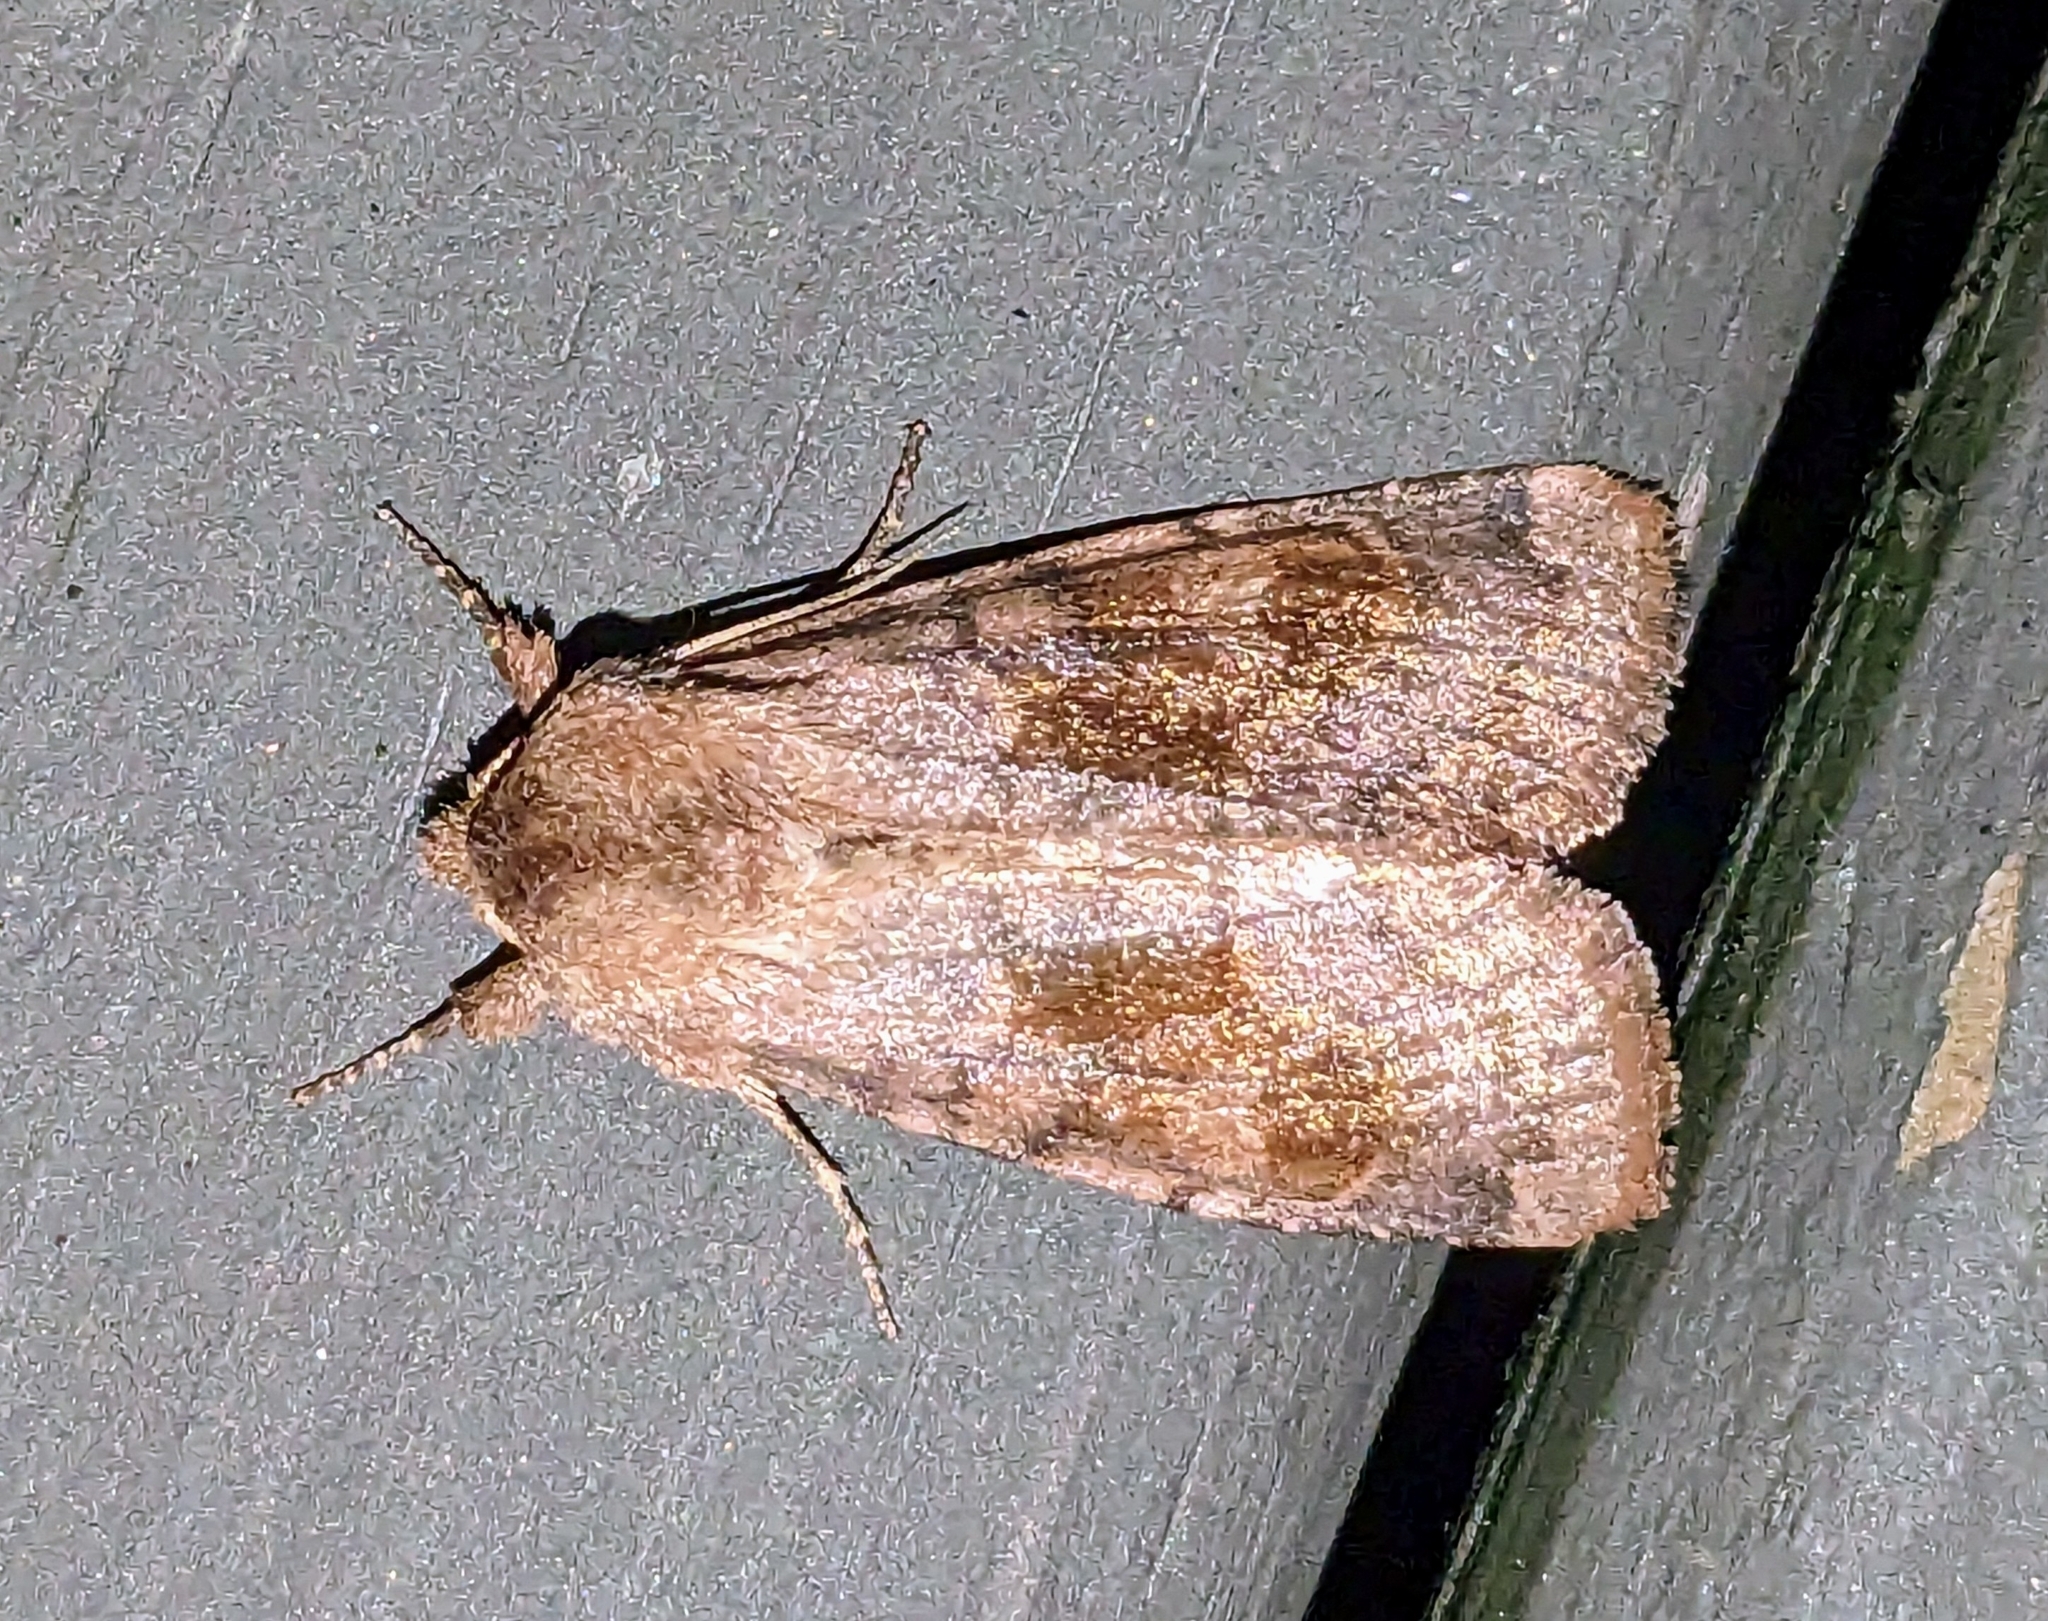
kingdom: Animalia
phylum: Arthropoda
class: Insecta
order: Lepidoptera
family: Noctuidae
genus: Nephelodes
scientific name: Nephelodes minians
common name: Bronzed cutworm
